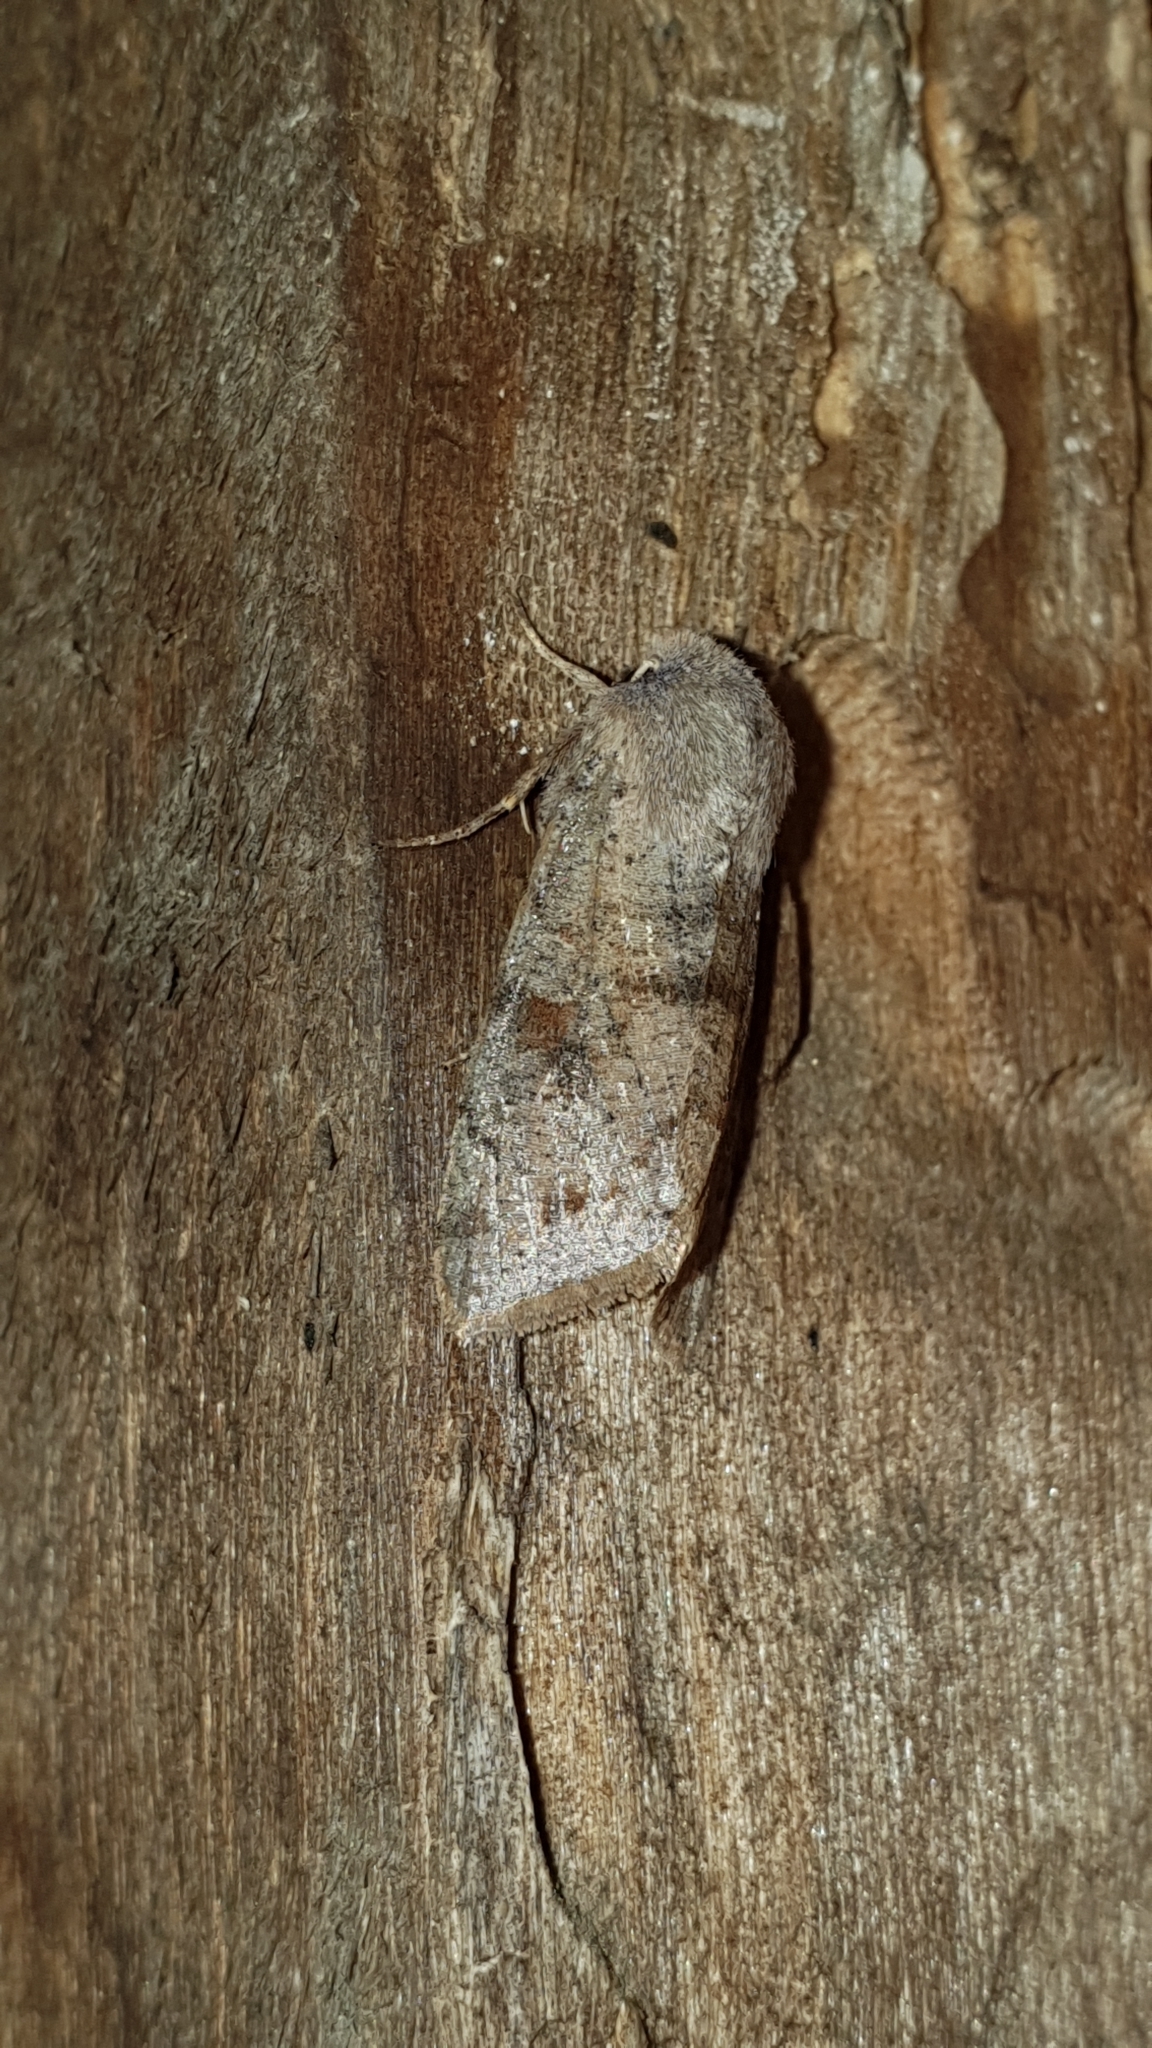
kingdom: Animalia
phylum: Arthropoda
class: Insecta
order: Lepidoptera
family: Noctuidae
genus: Orthosia
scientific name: Orthosia incerta
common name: Clouded drab
